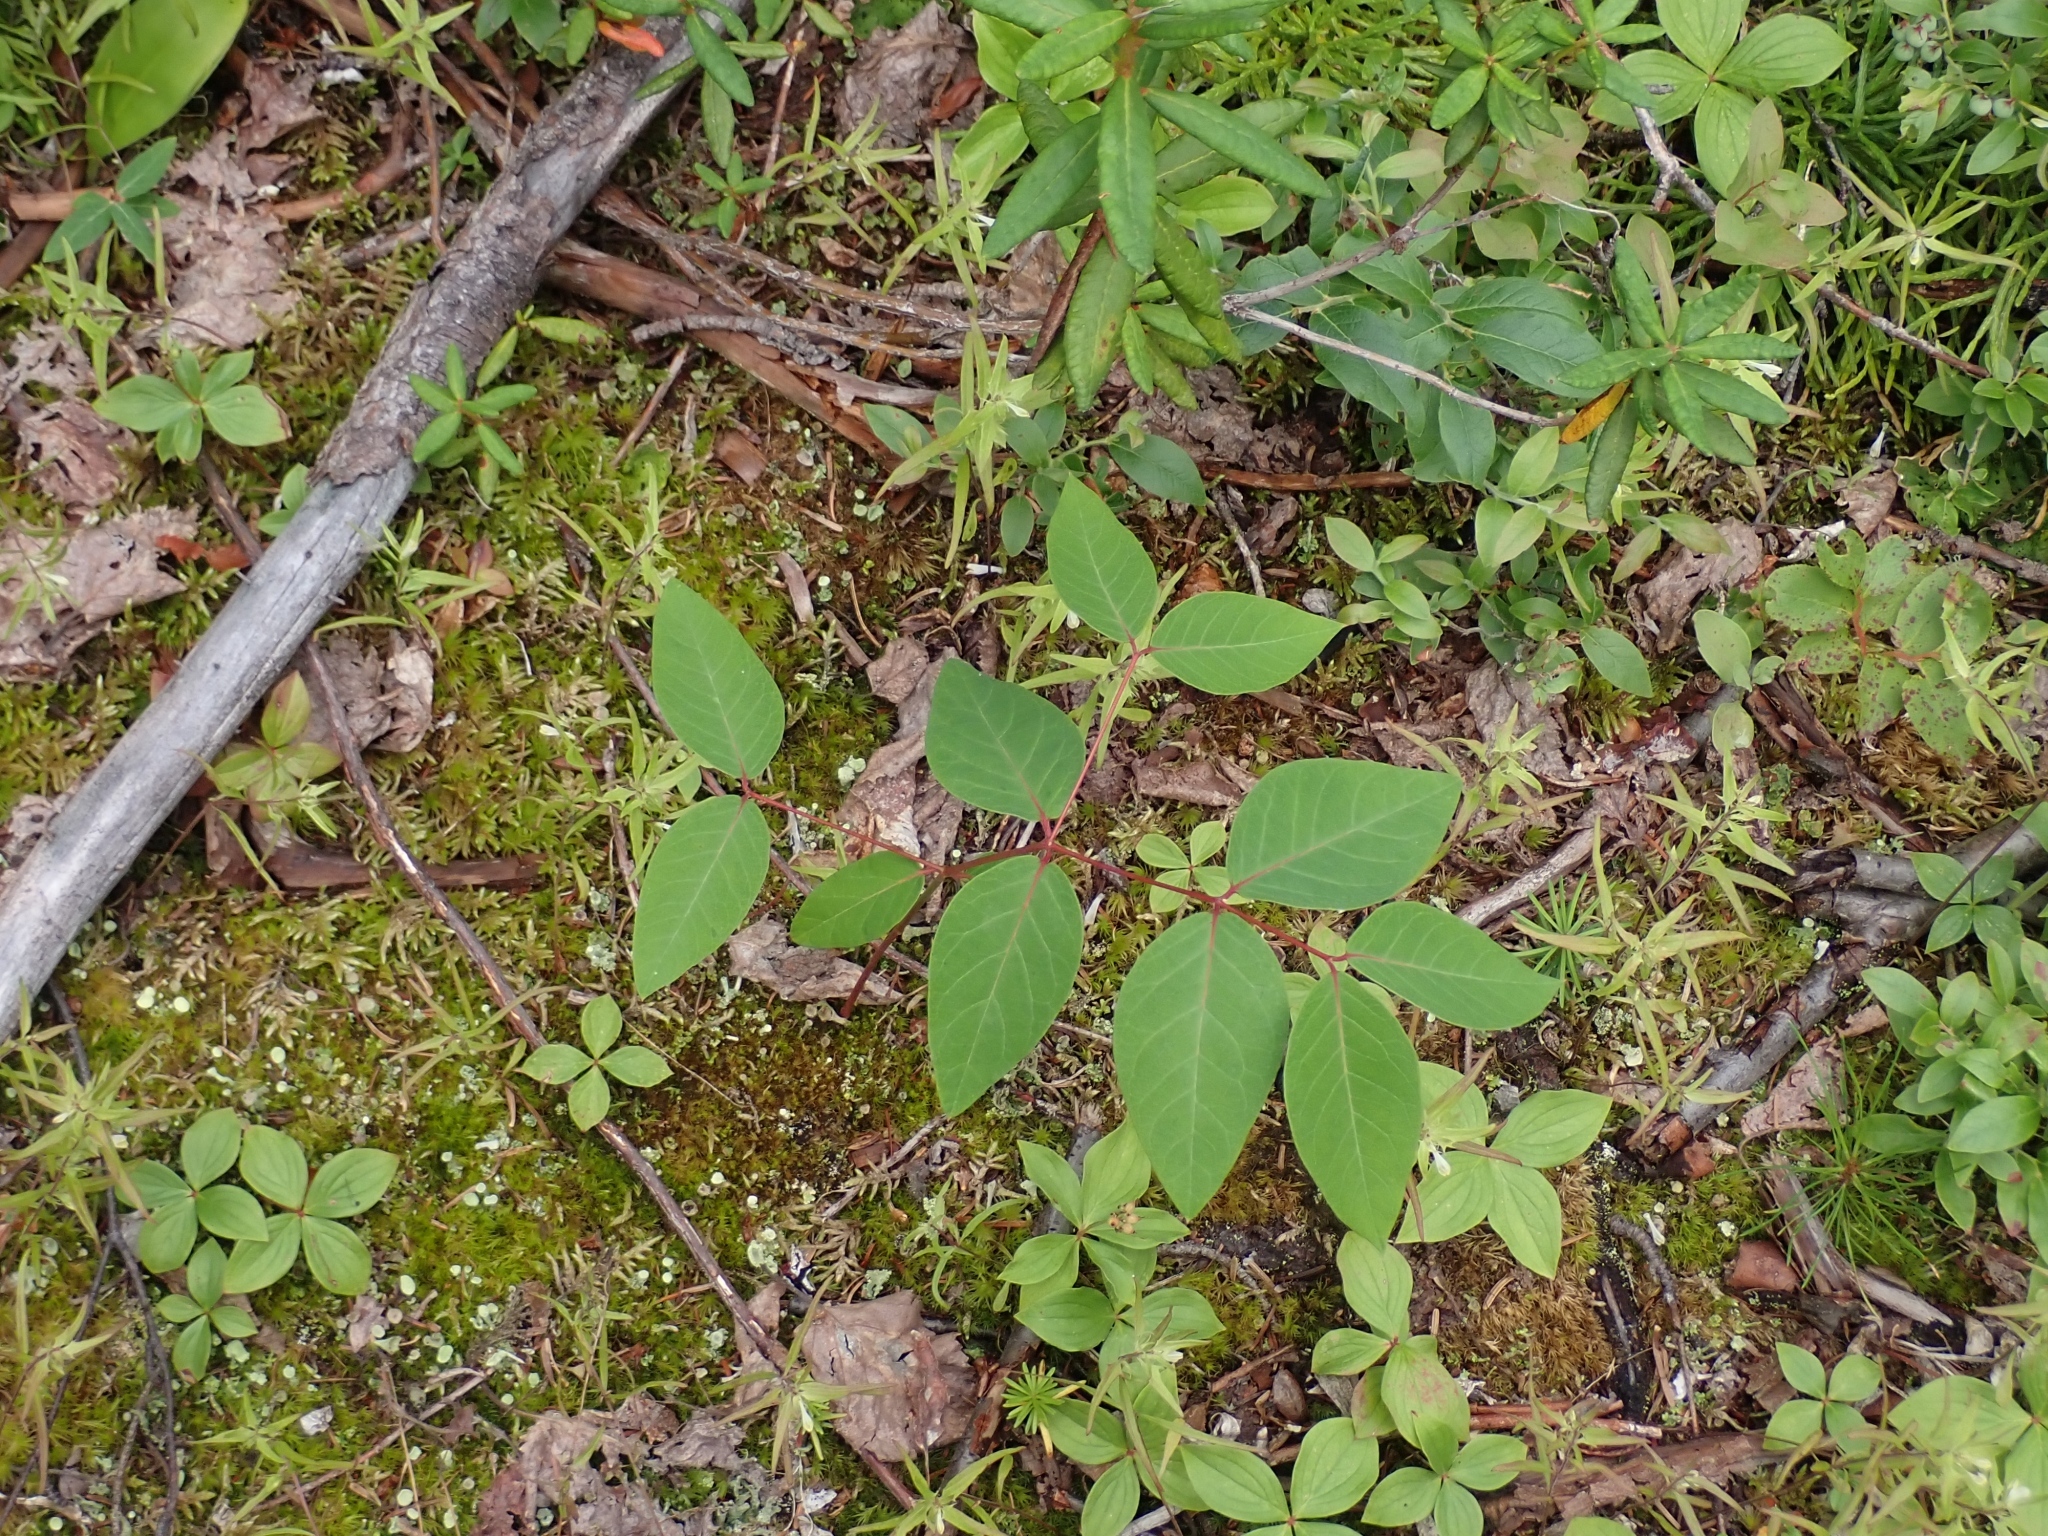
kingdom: Plantae
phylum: Tracheophyta
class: Magnoliopsida
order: Gentianales
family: Apocynaceae
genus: Apocynum
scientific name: Apocynum androsaemifolium
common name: Spreading dogbane
